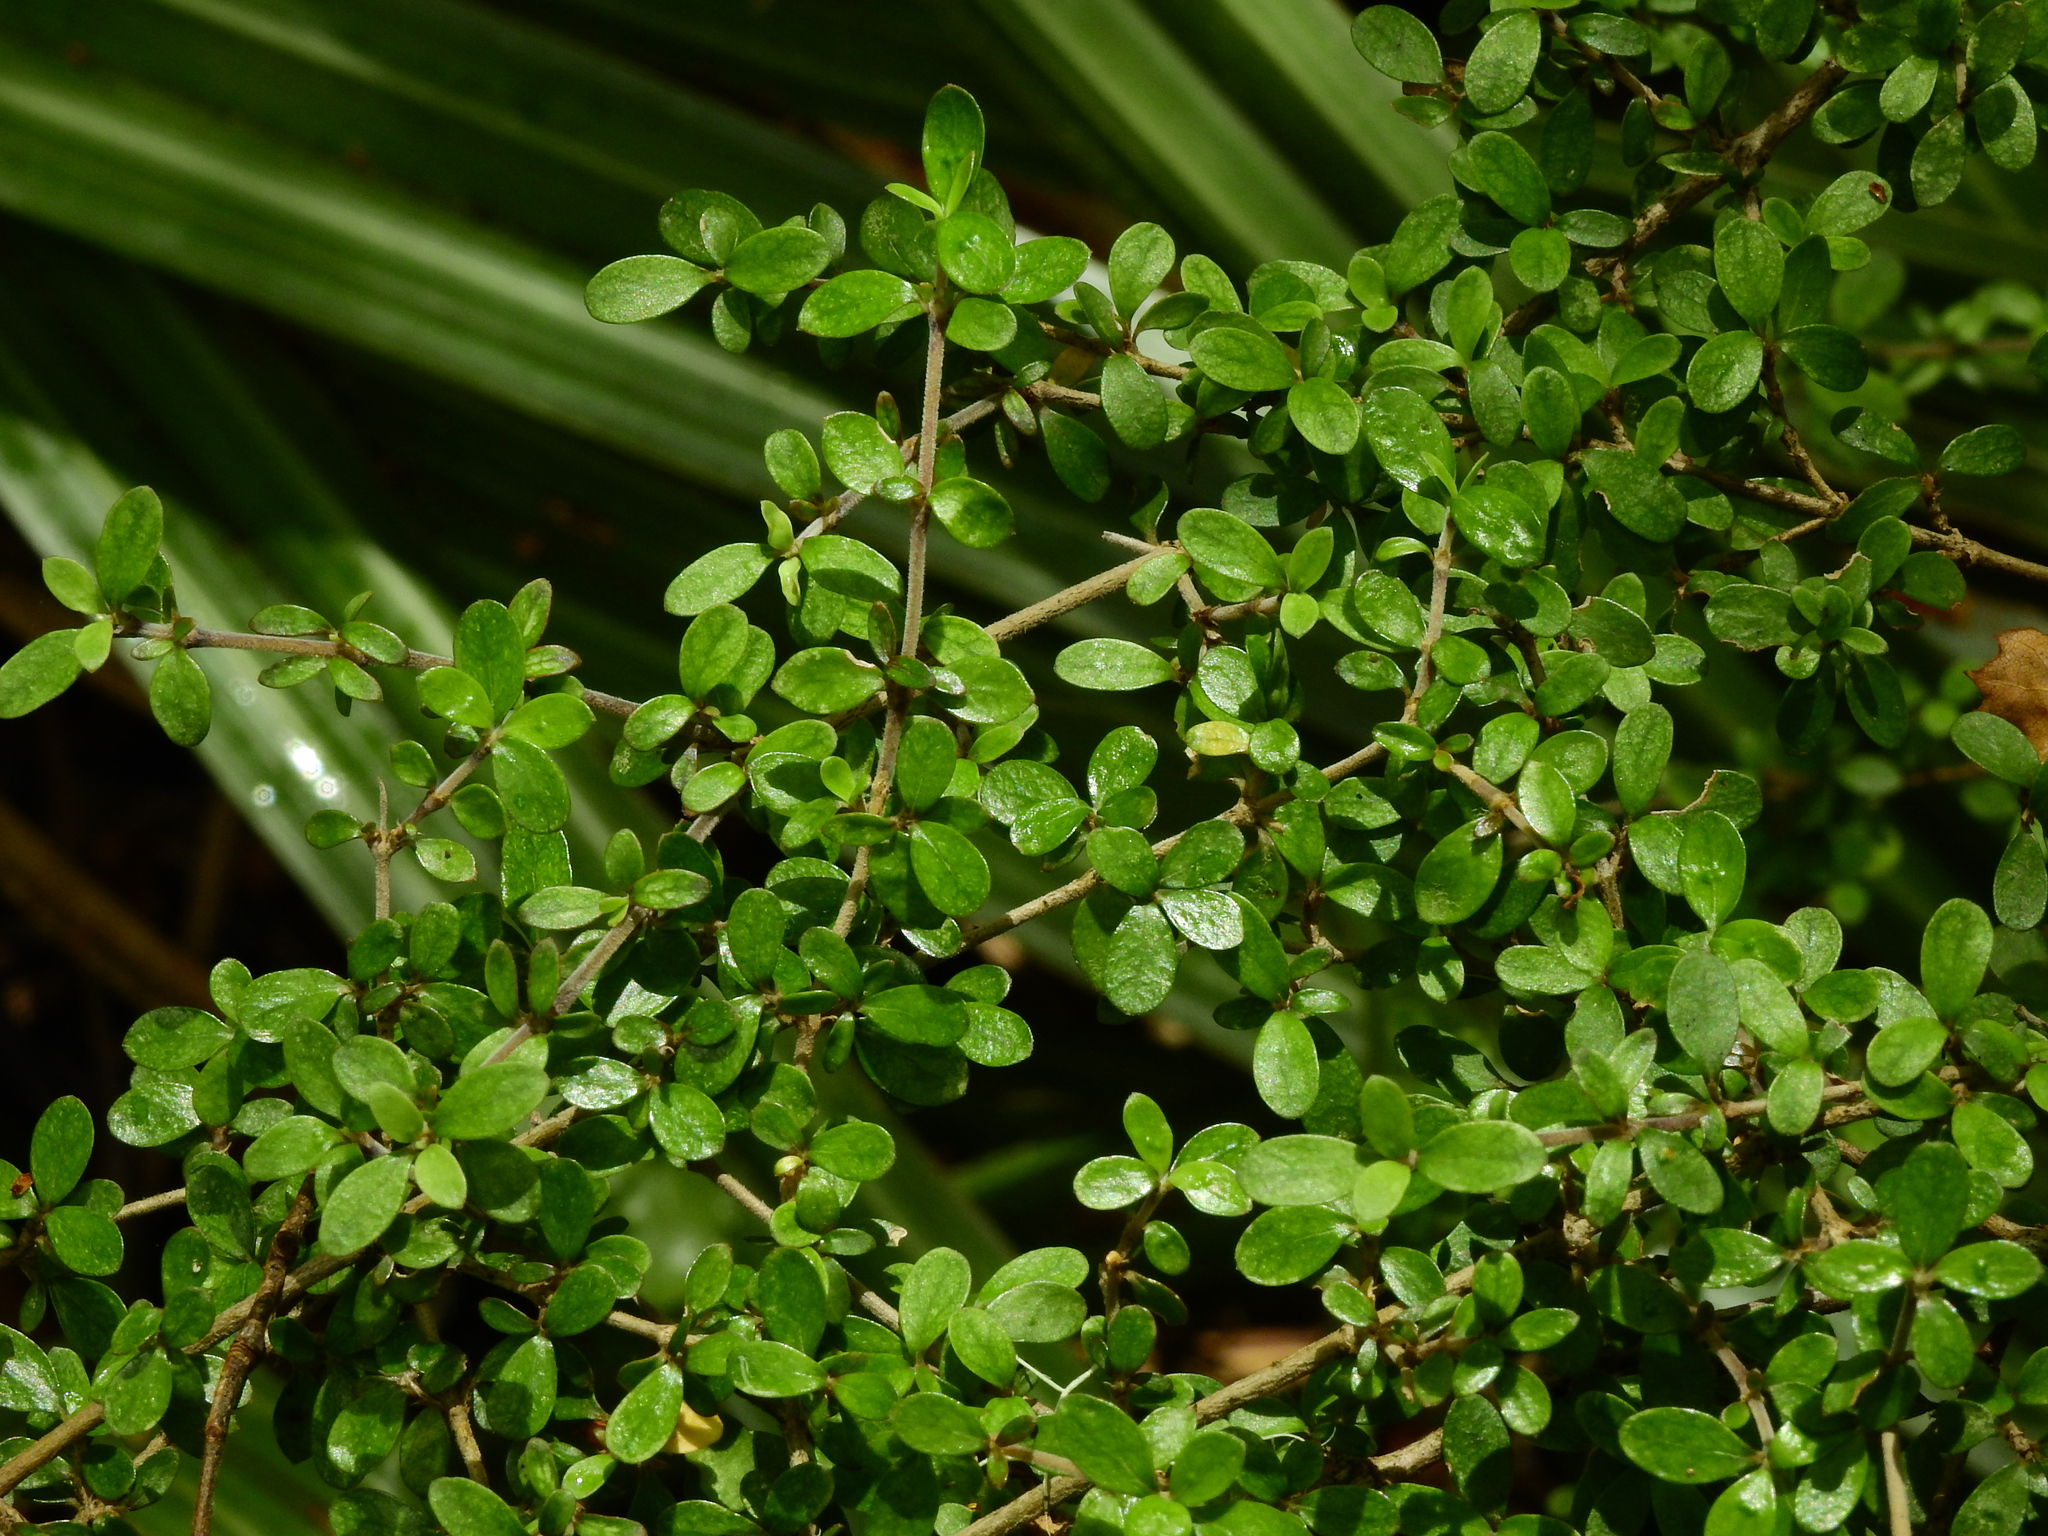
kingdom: Plantae
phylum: Tracheophyta
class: Magnoliopsida
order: Gentianales
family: Rubiaceae
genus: Coprosma
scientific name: Coprosma rhamnoides
